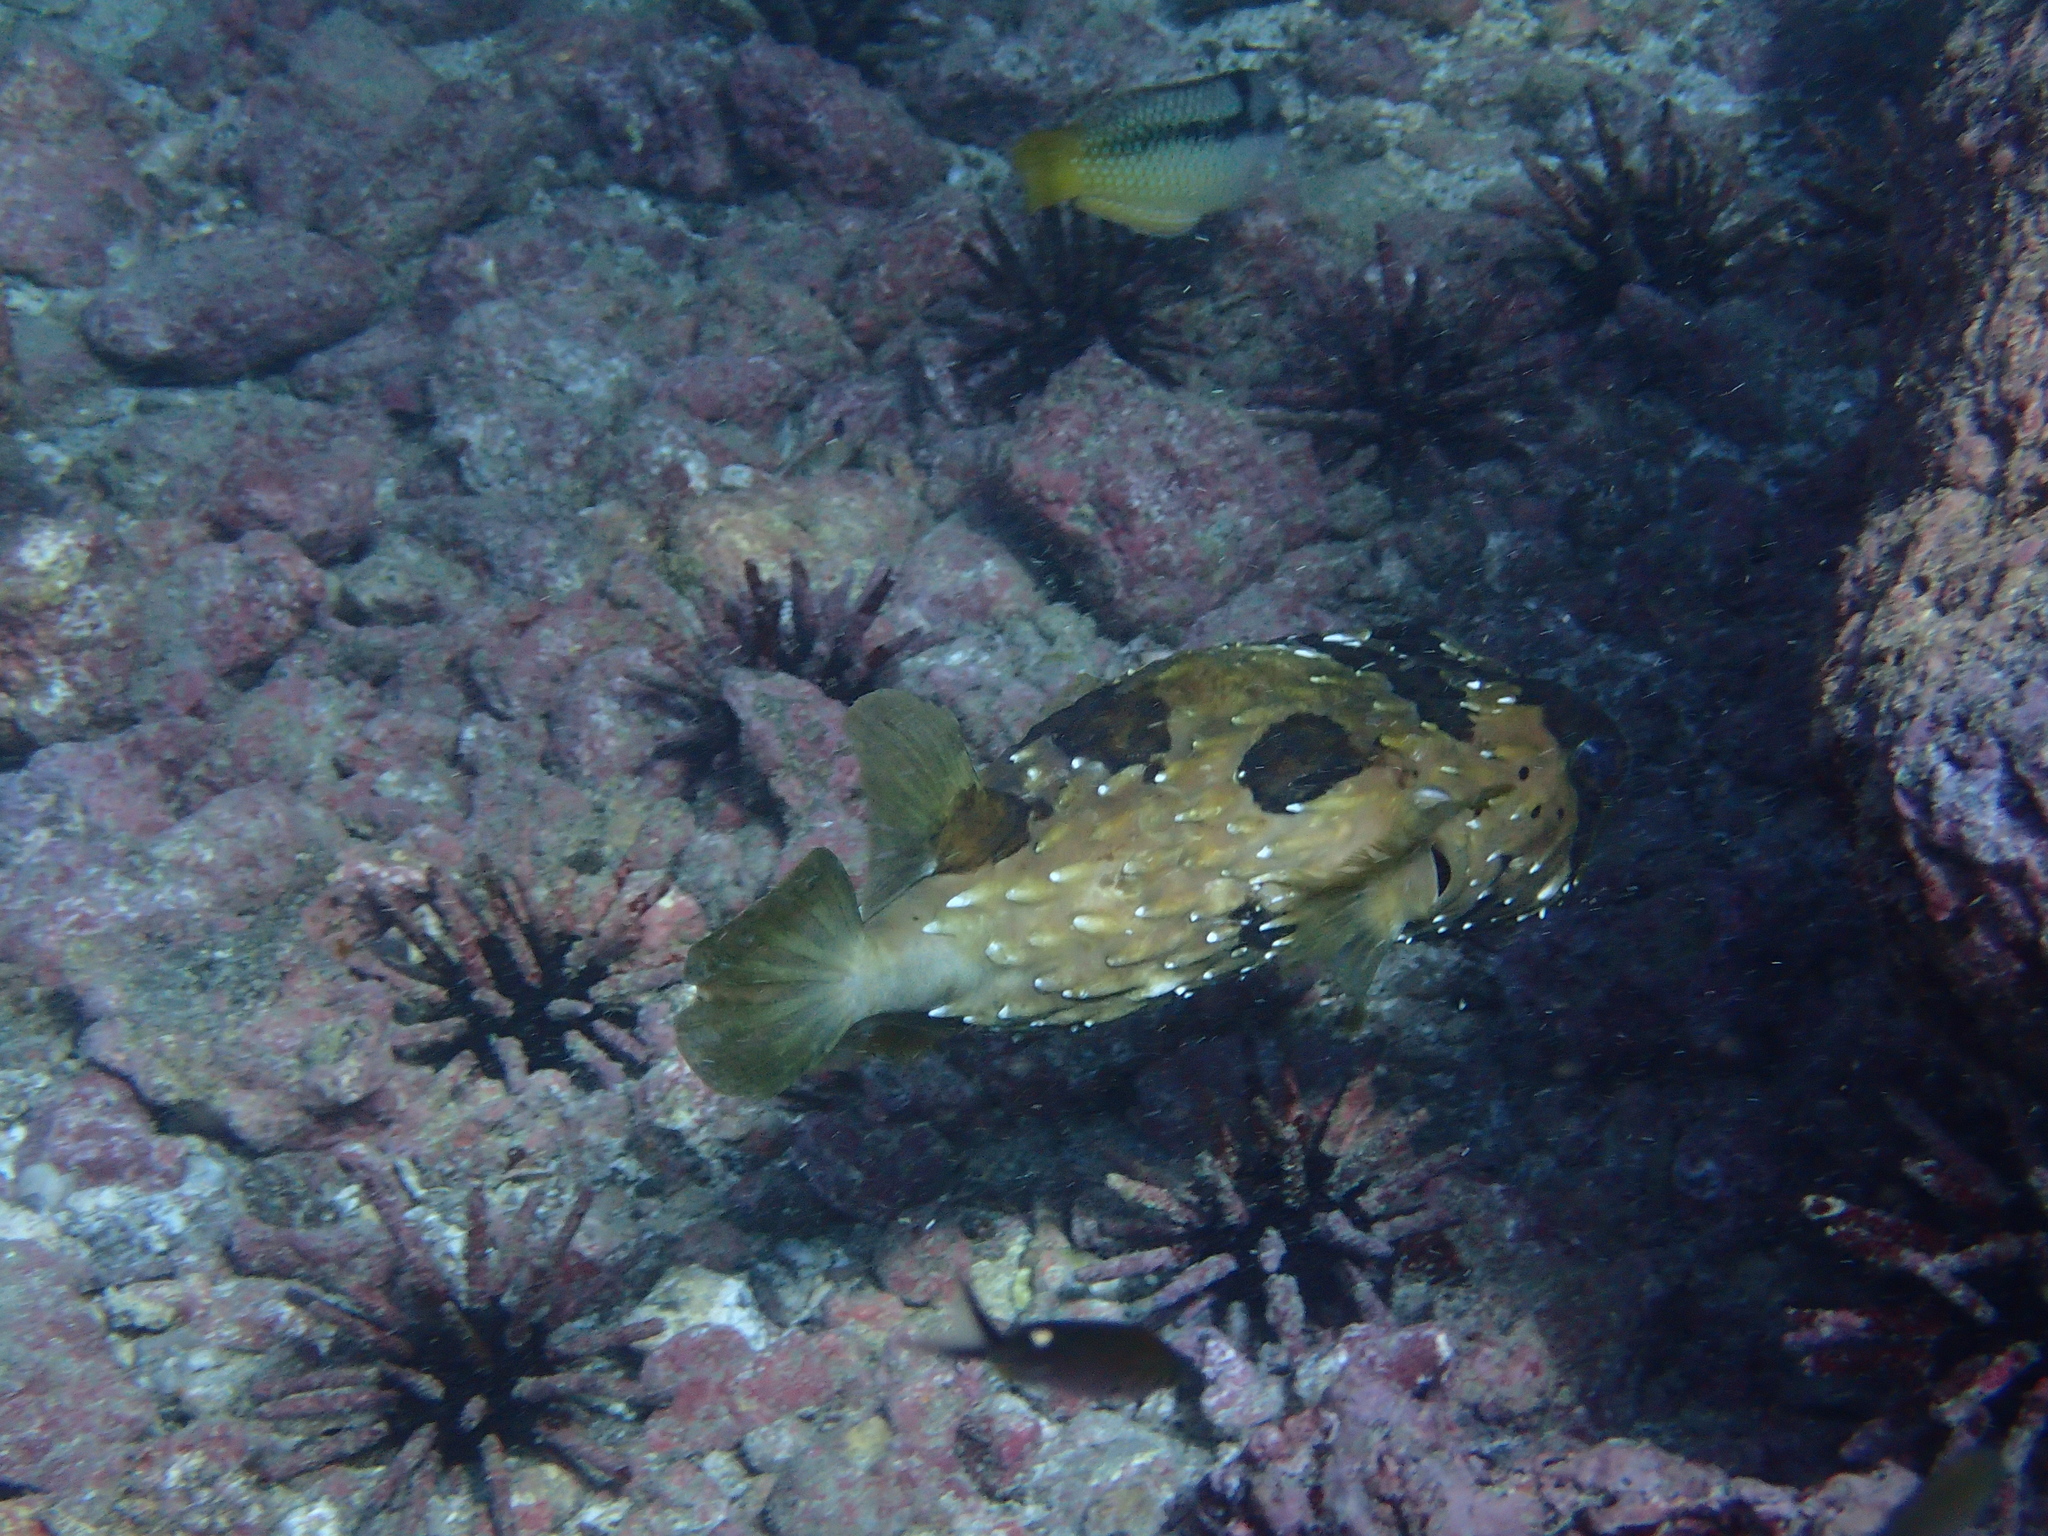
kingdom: Animalia
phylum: Chordata
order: Tetraodontiformes
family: Diodontidae
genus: Diodon
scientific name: Diodon holocanthus
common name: Balloonfish
